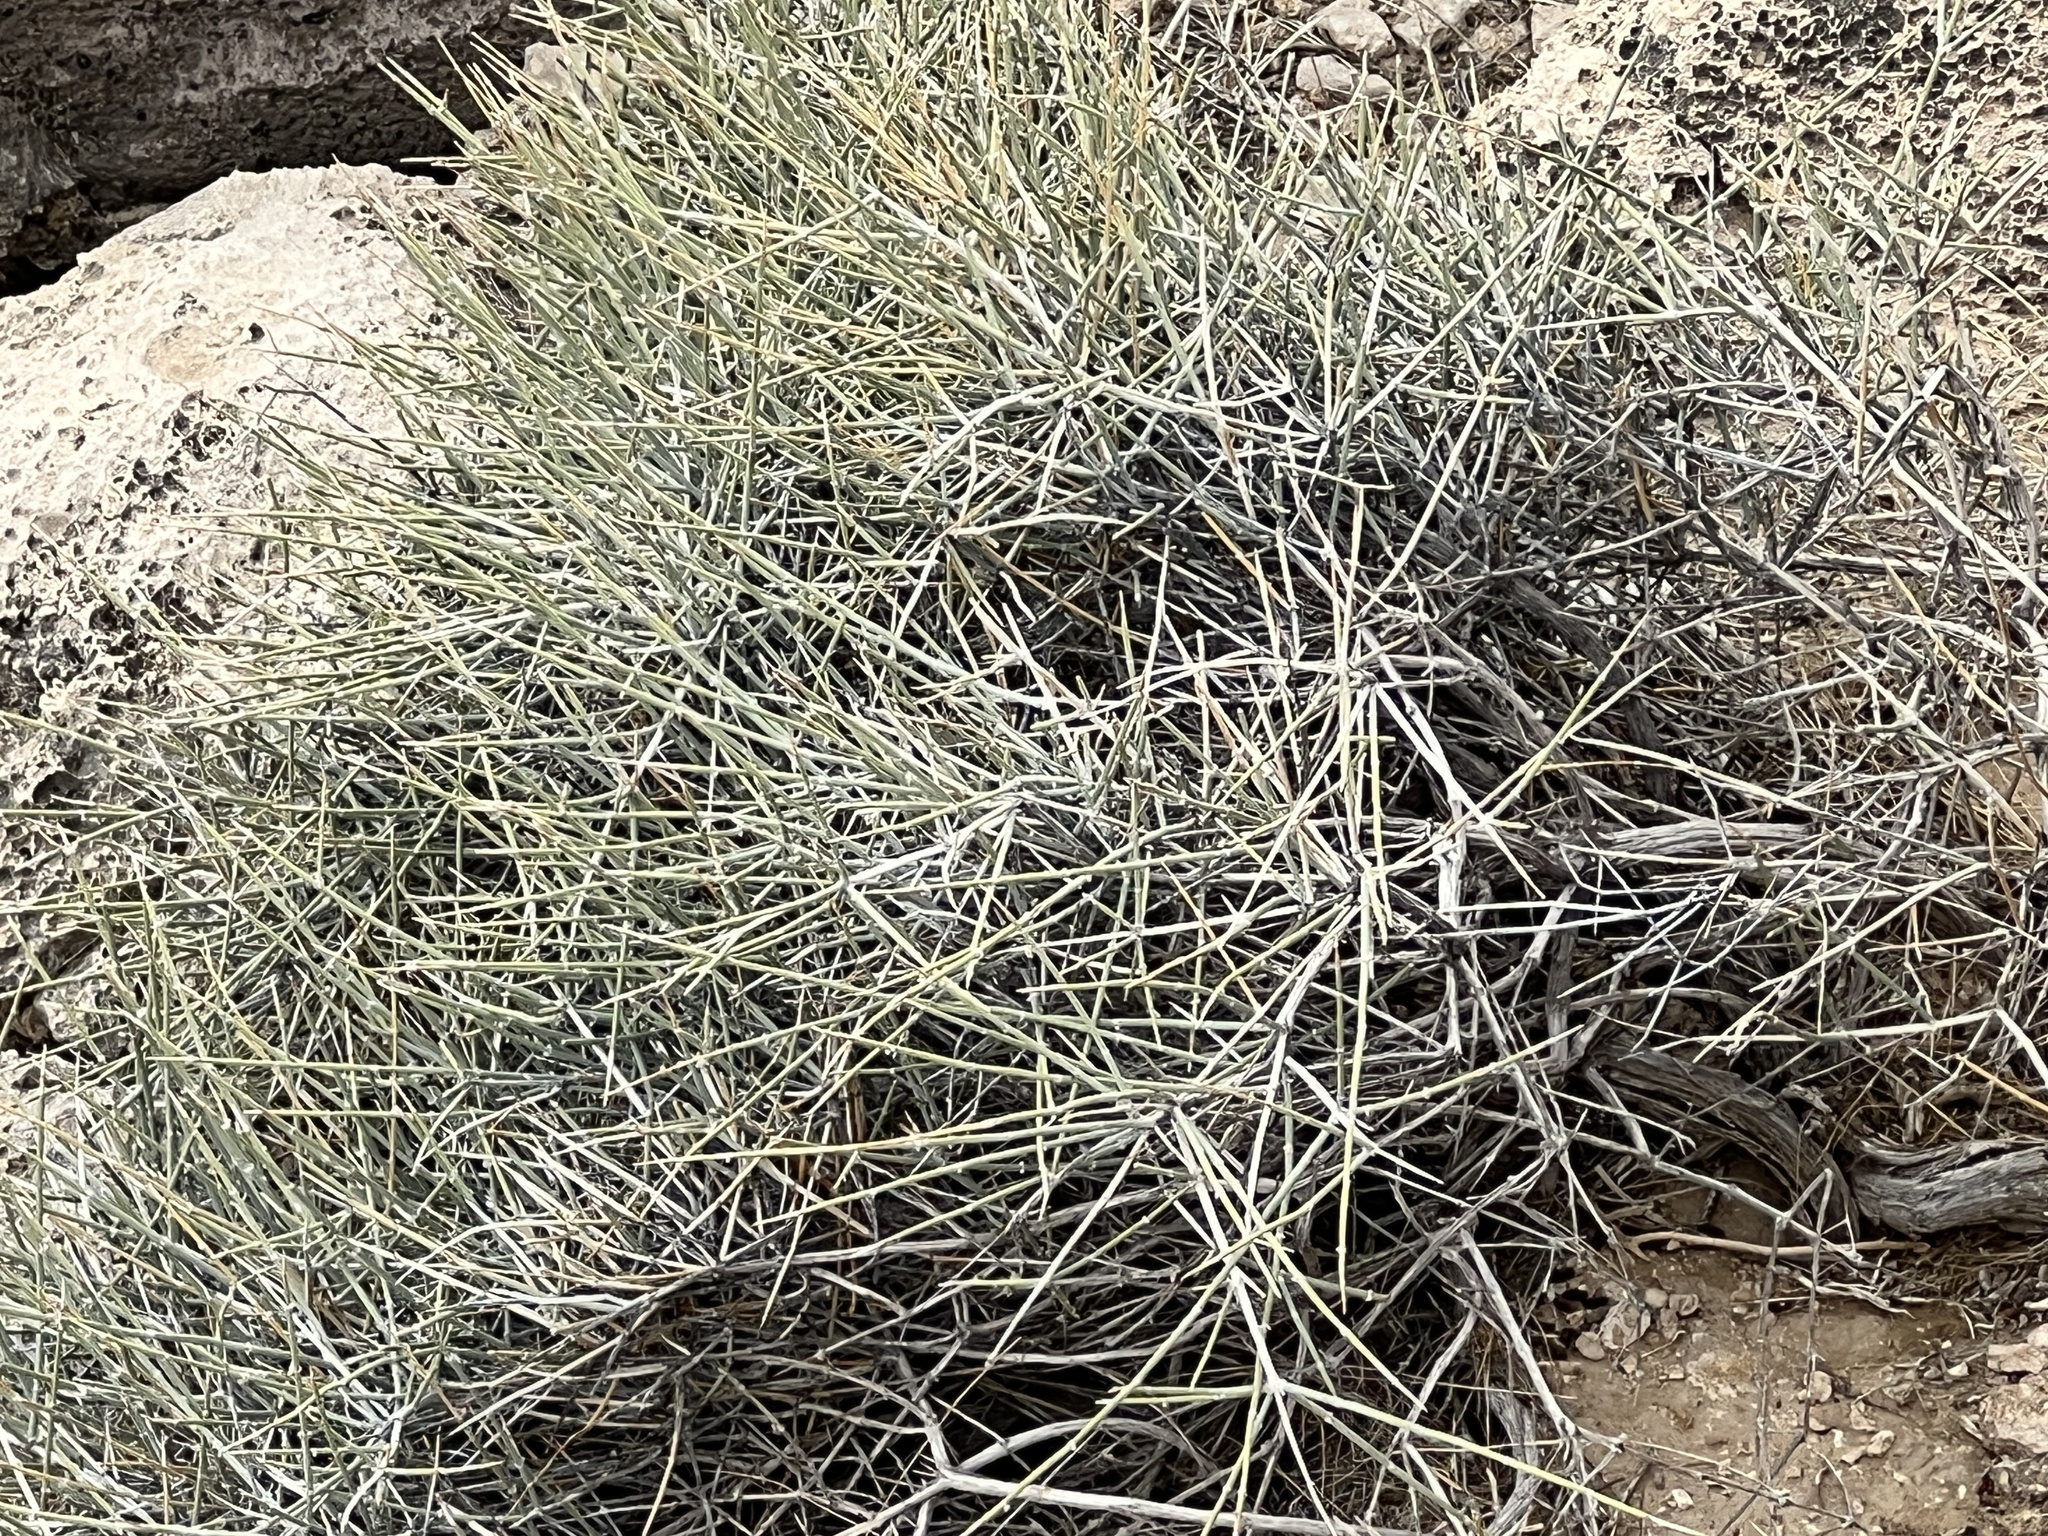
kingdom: Plantae
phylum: Tracheophyta
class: Gnetopsida
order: Ephedrales
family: Ephedraceae
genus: Ephedra
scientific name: Ephedra nevadensis
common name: Gray ephedra
